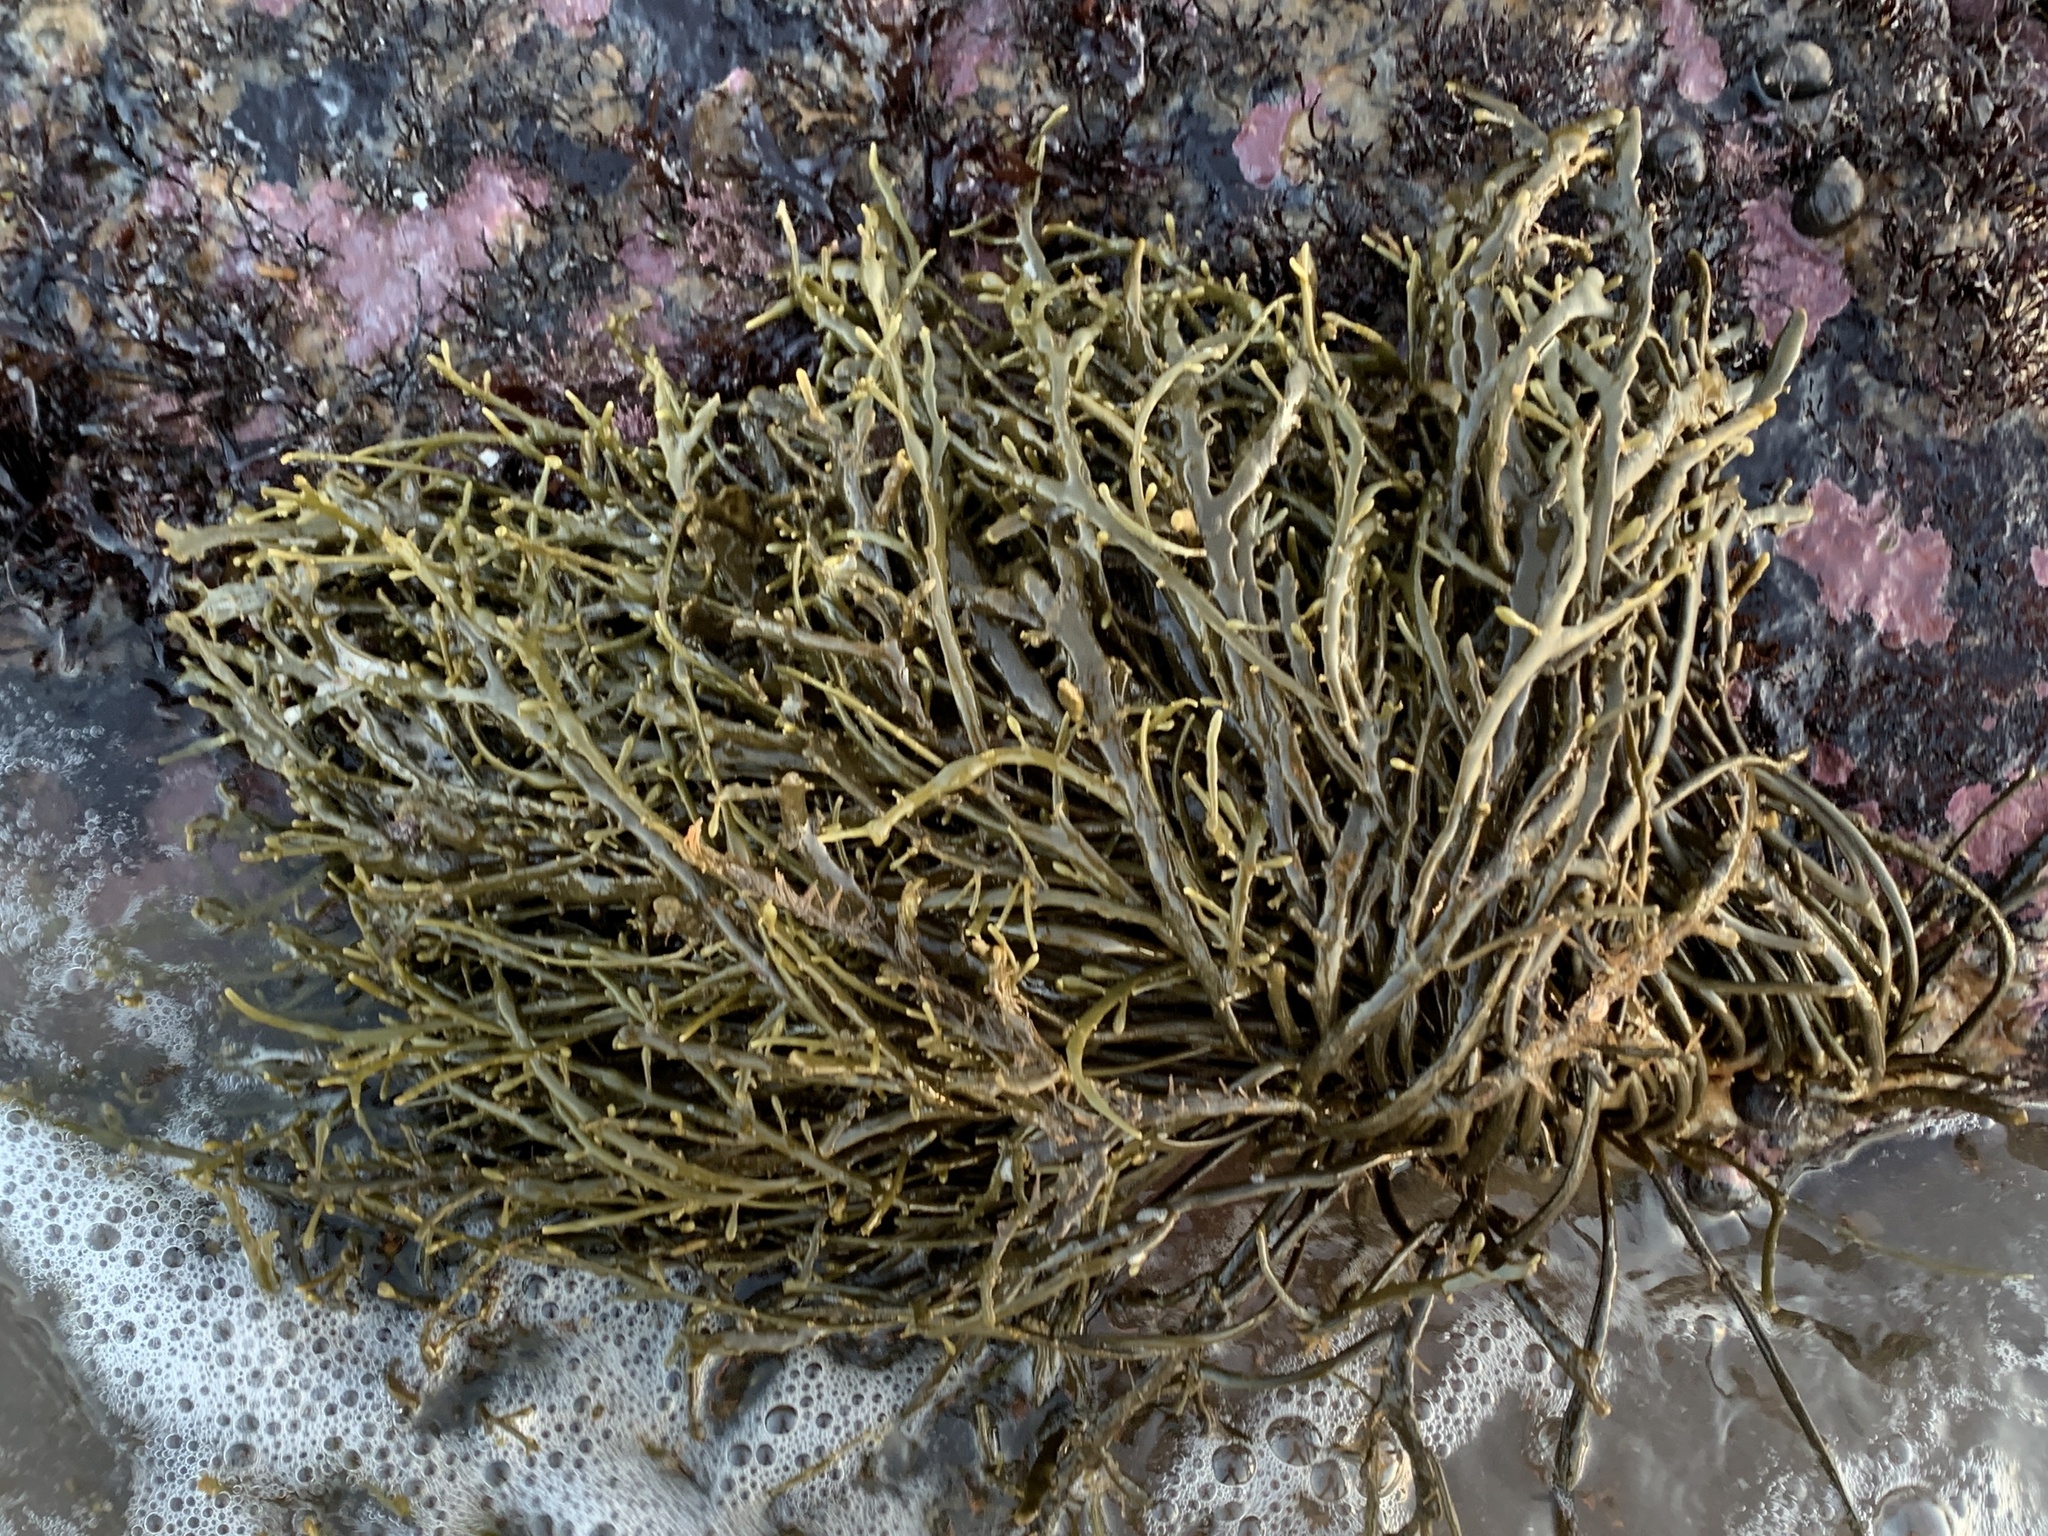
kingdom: Chromista
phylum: Ochrophyta
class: Phaeophyceae
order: Fucales
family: Fucaceae
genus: Ascophyllum
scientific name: Ascophyllum nodosum
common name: Knotted wrack
